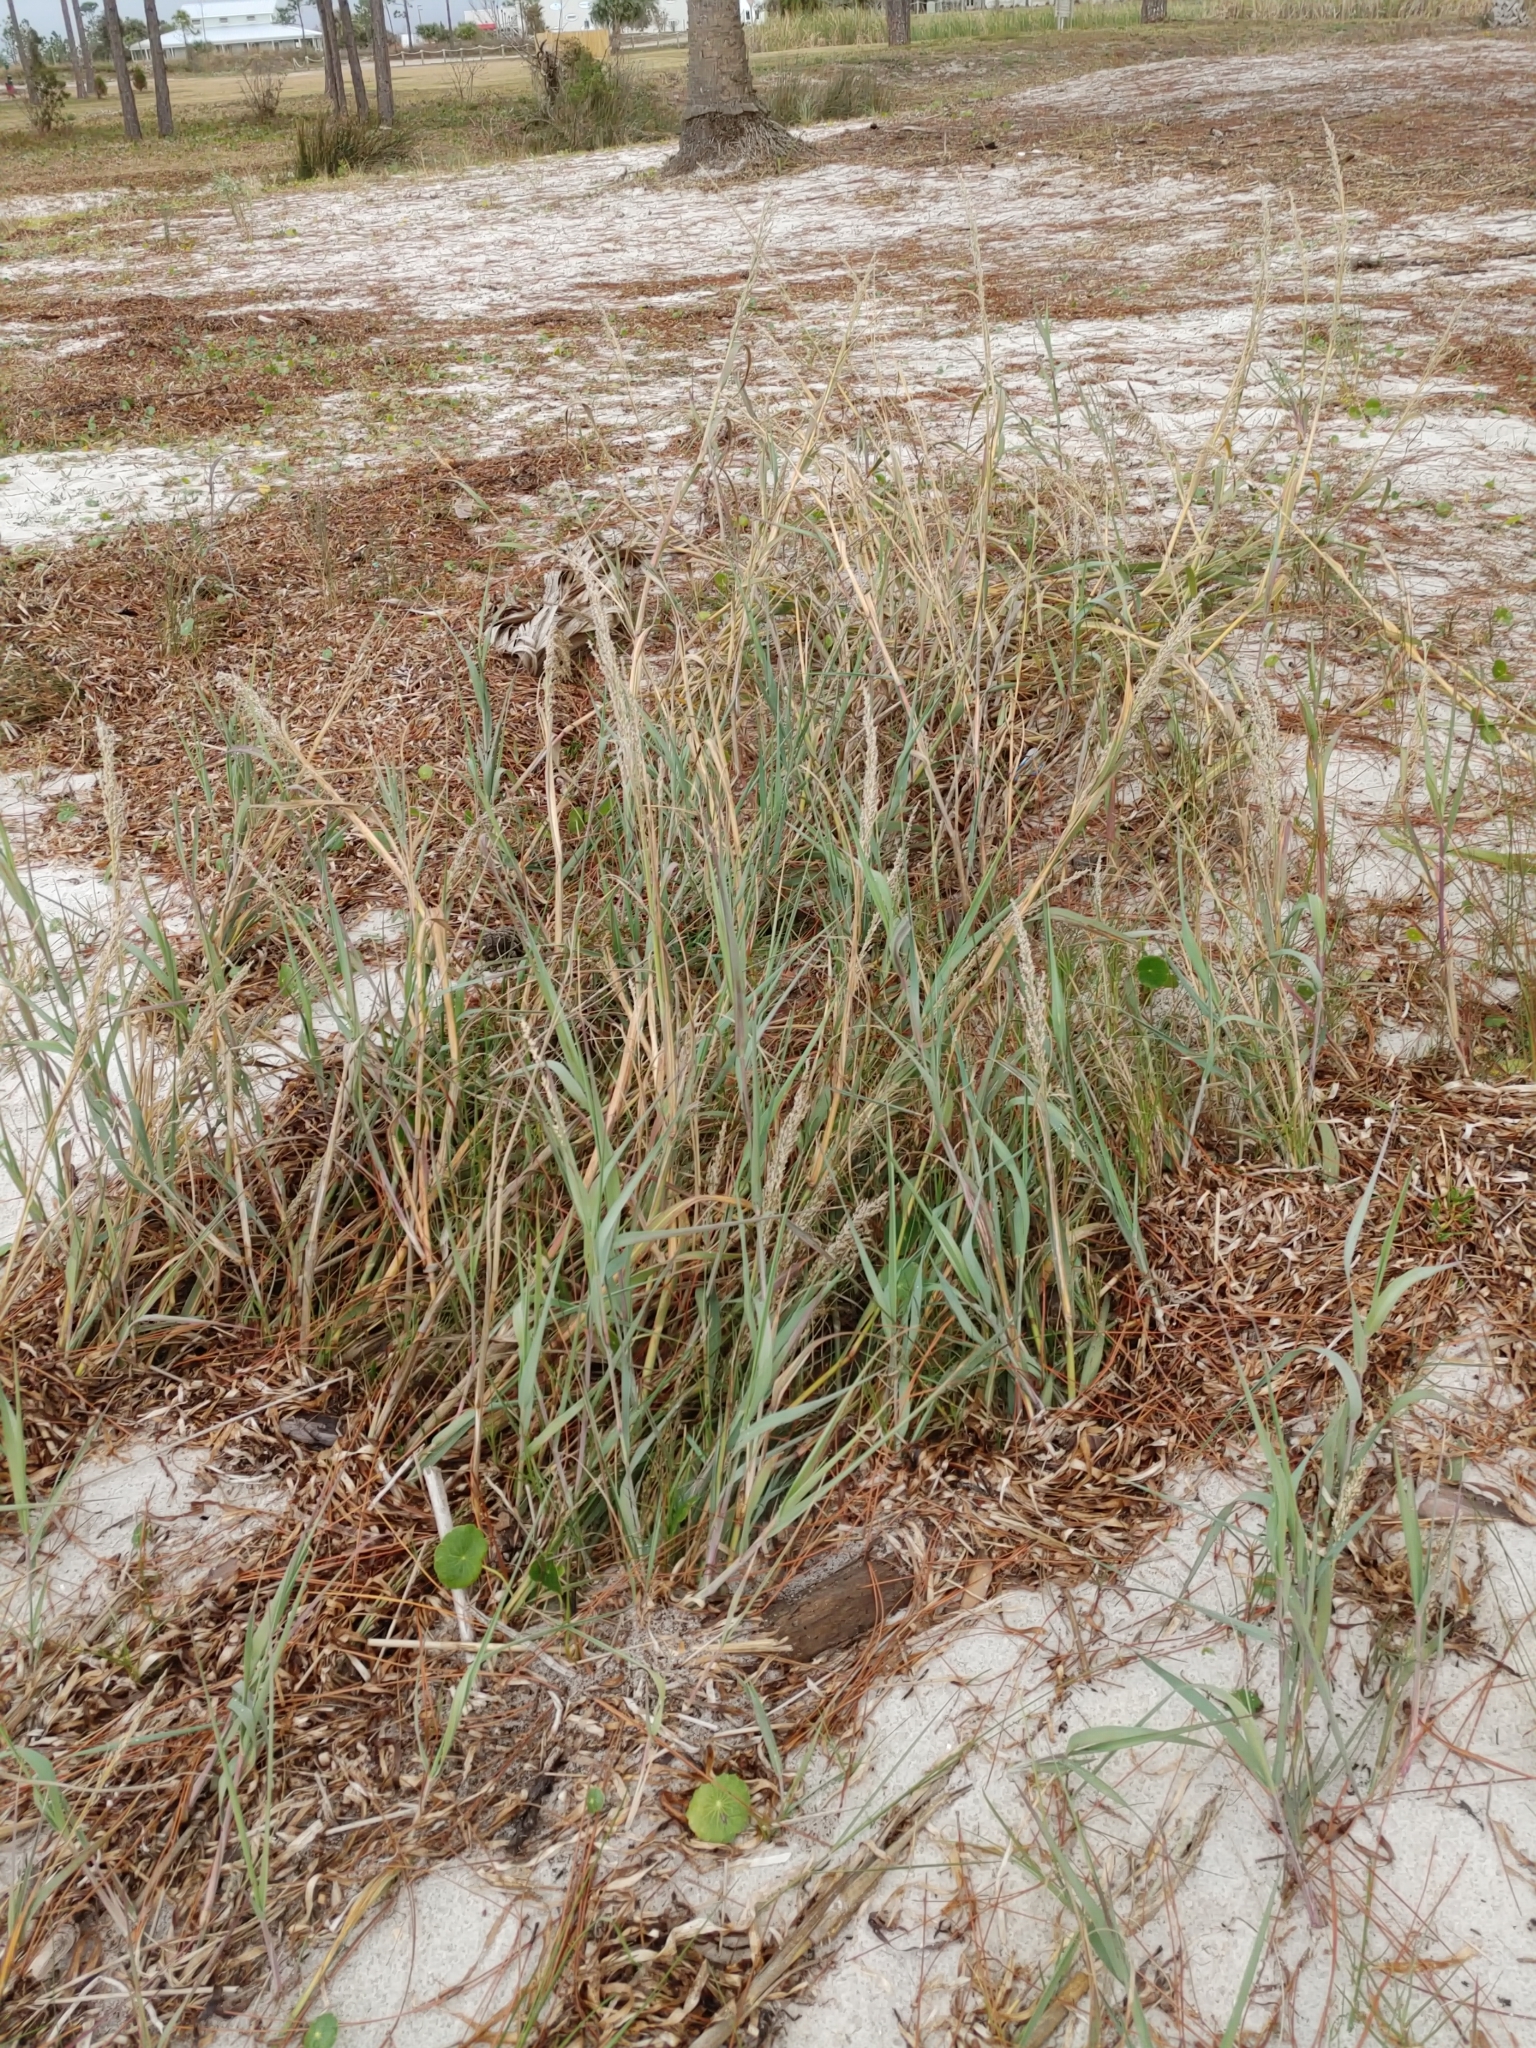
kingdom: Plantae
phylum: Tracheophyta
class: Liliopsida
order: Poales
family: Poaceae
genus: Panicum
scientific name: Panicum amarum
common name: Bitter panicum
